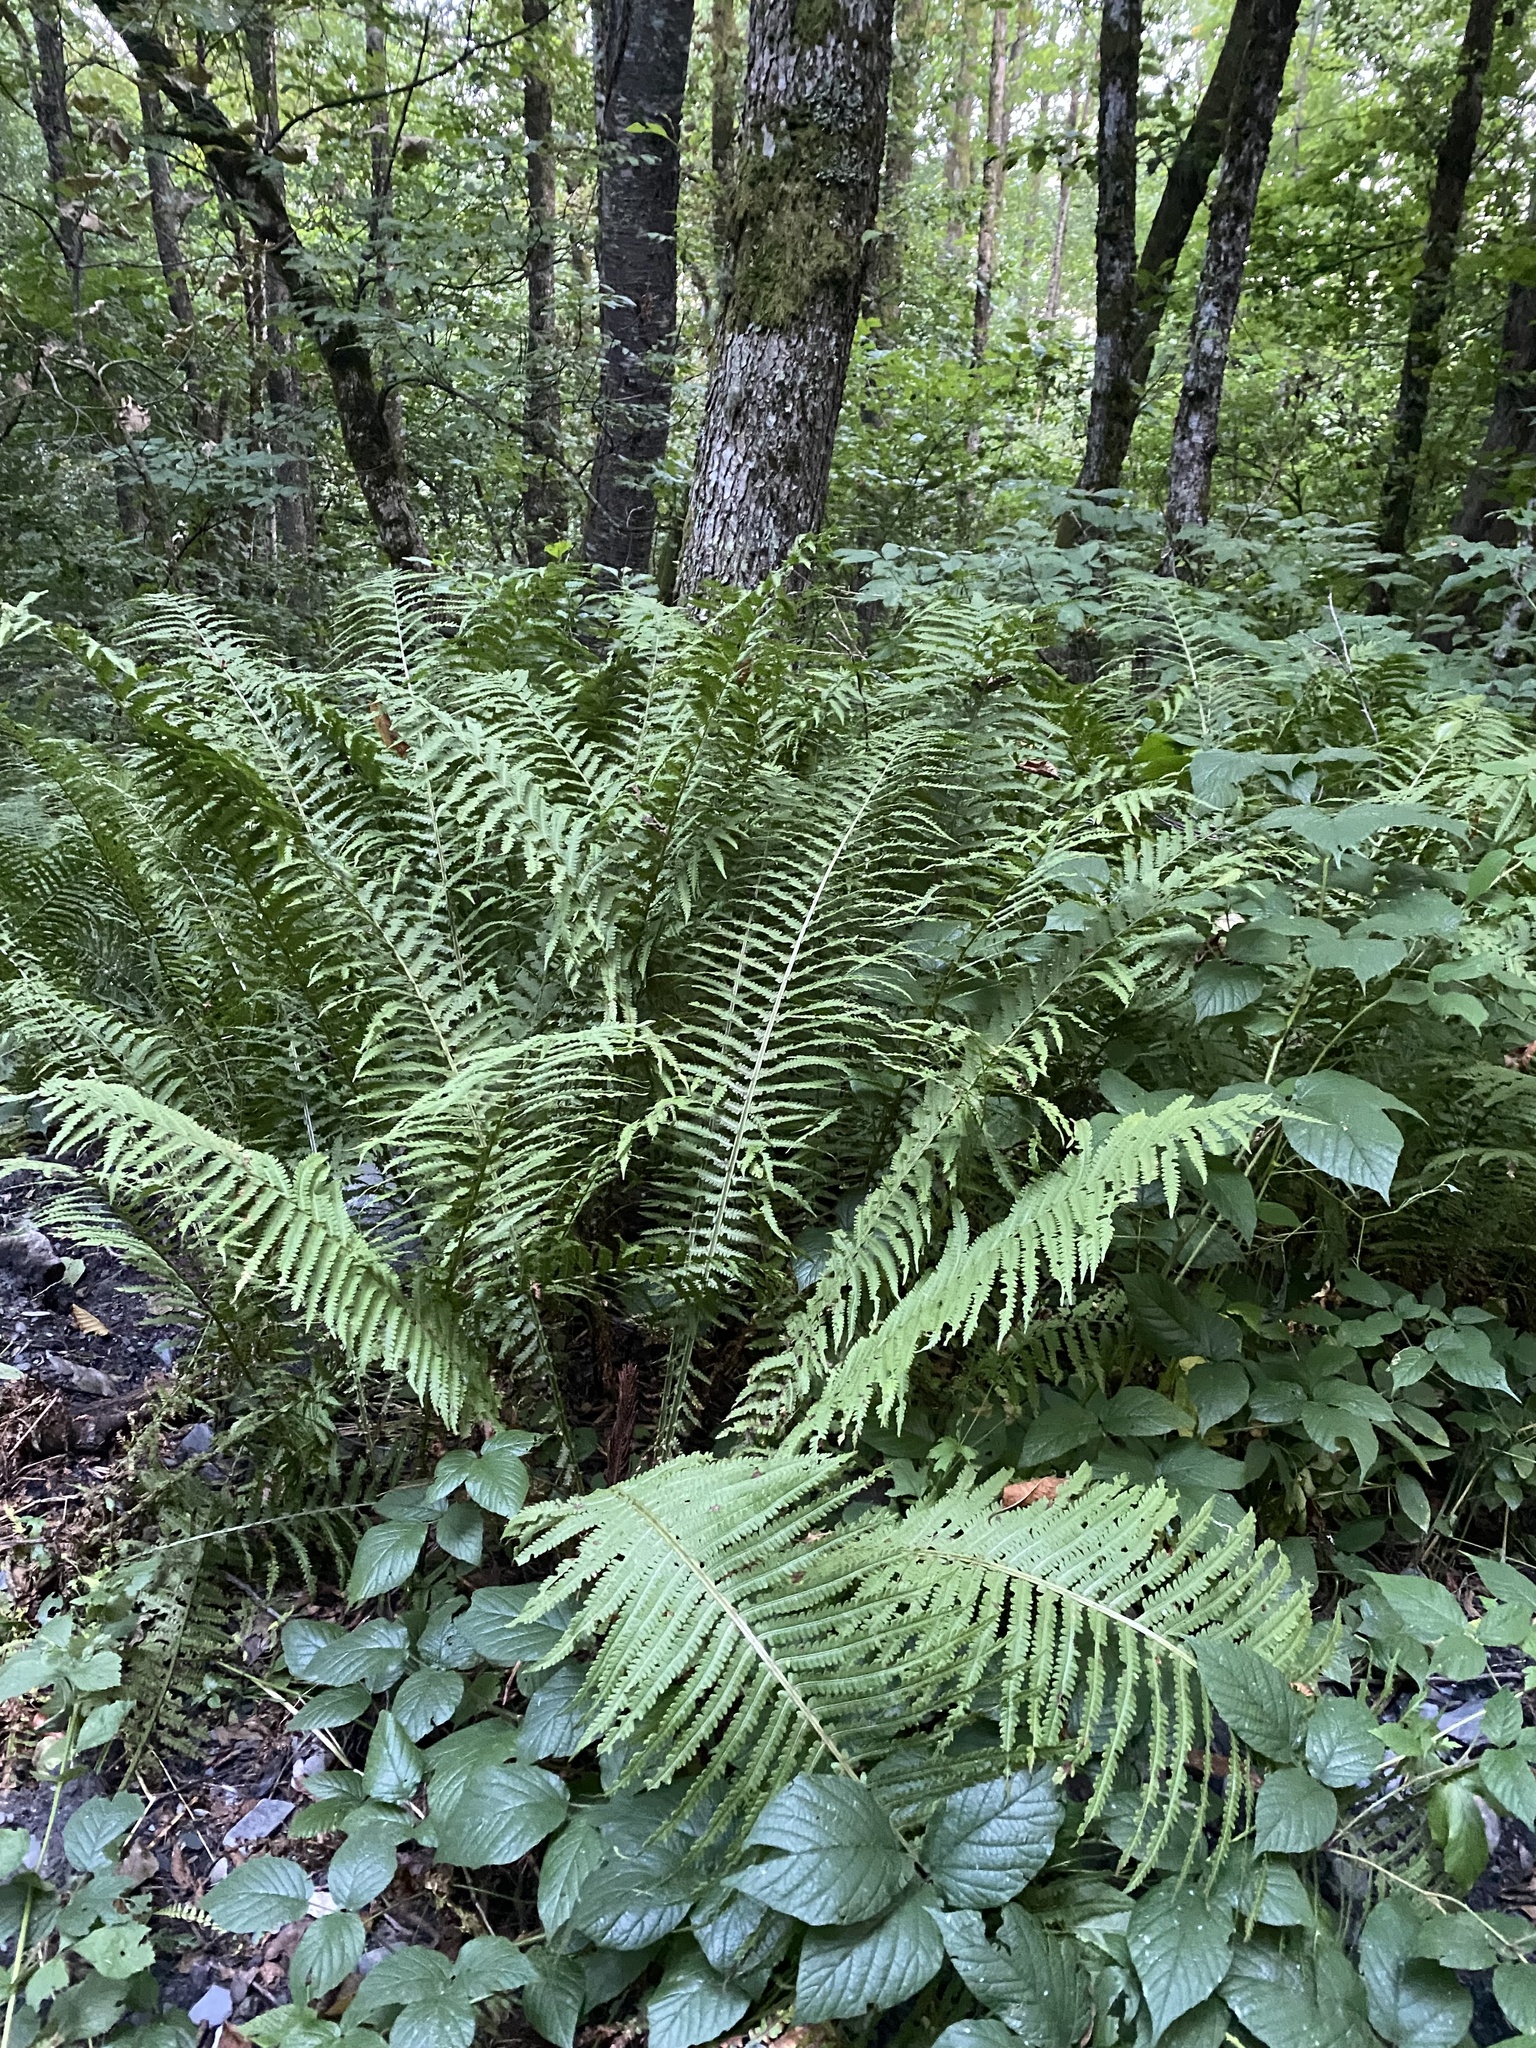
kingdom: Plantae
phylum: Tracheophyta
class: Polypodiopsida
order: Polypodiales
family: Onocleaceae
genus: Matteuccia
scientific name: Matteuccia struthiopteris
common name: Ostrich fern
